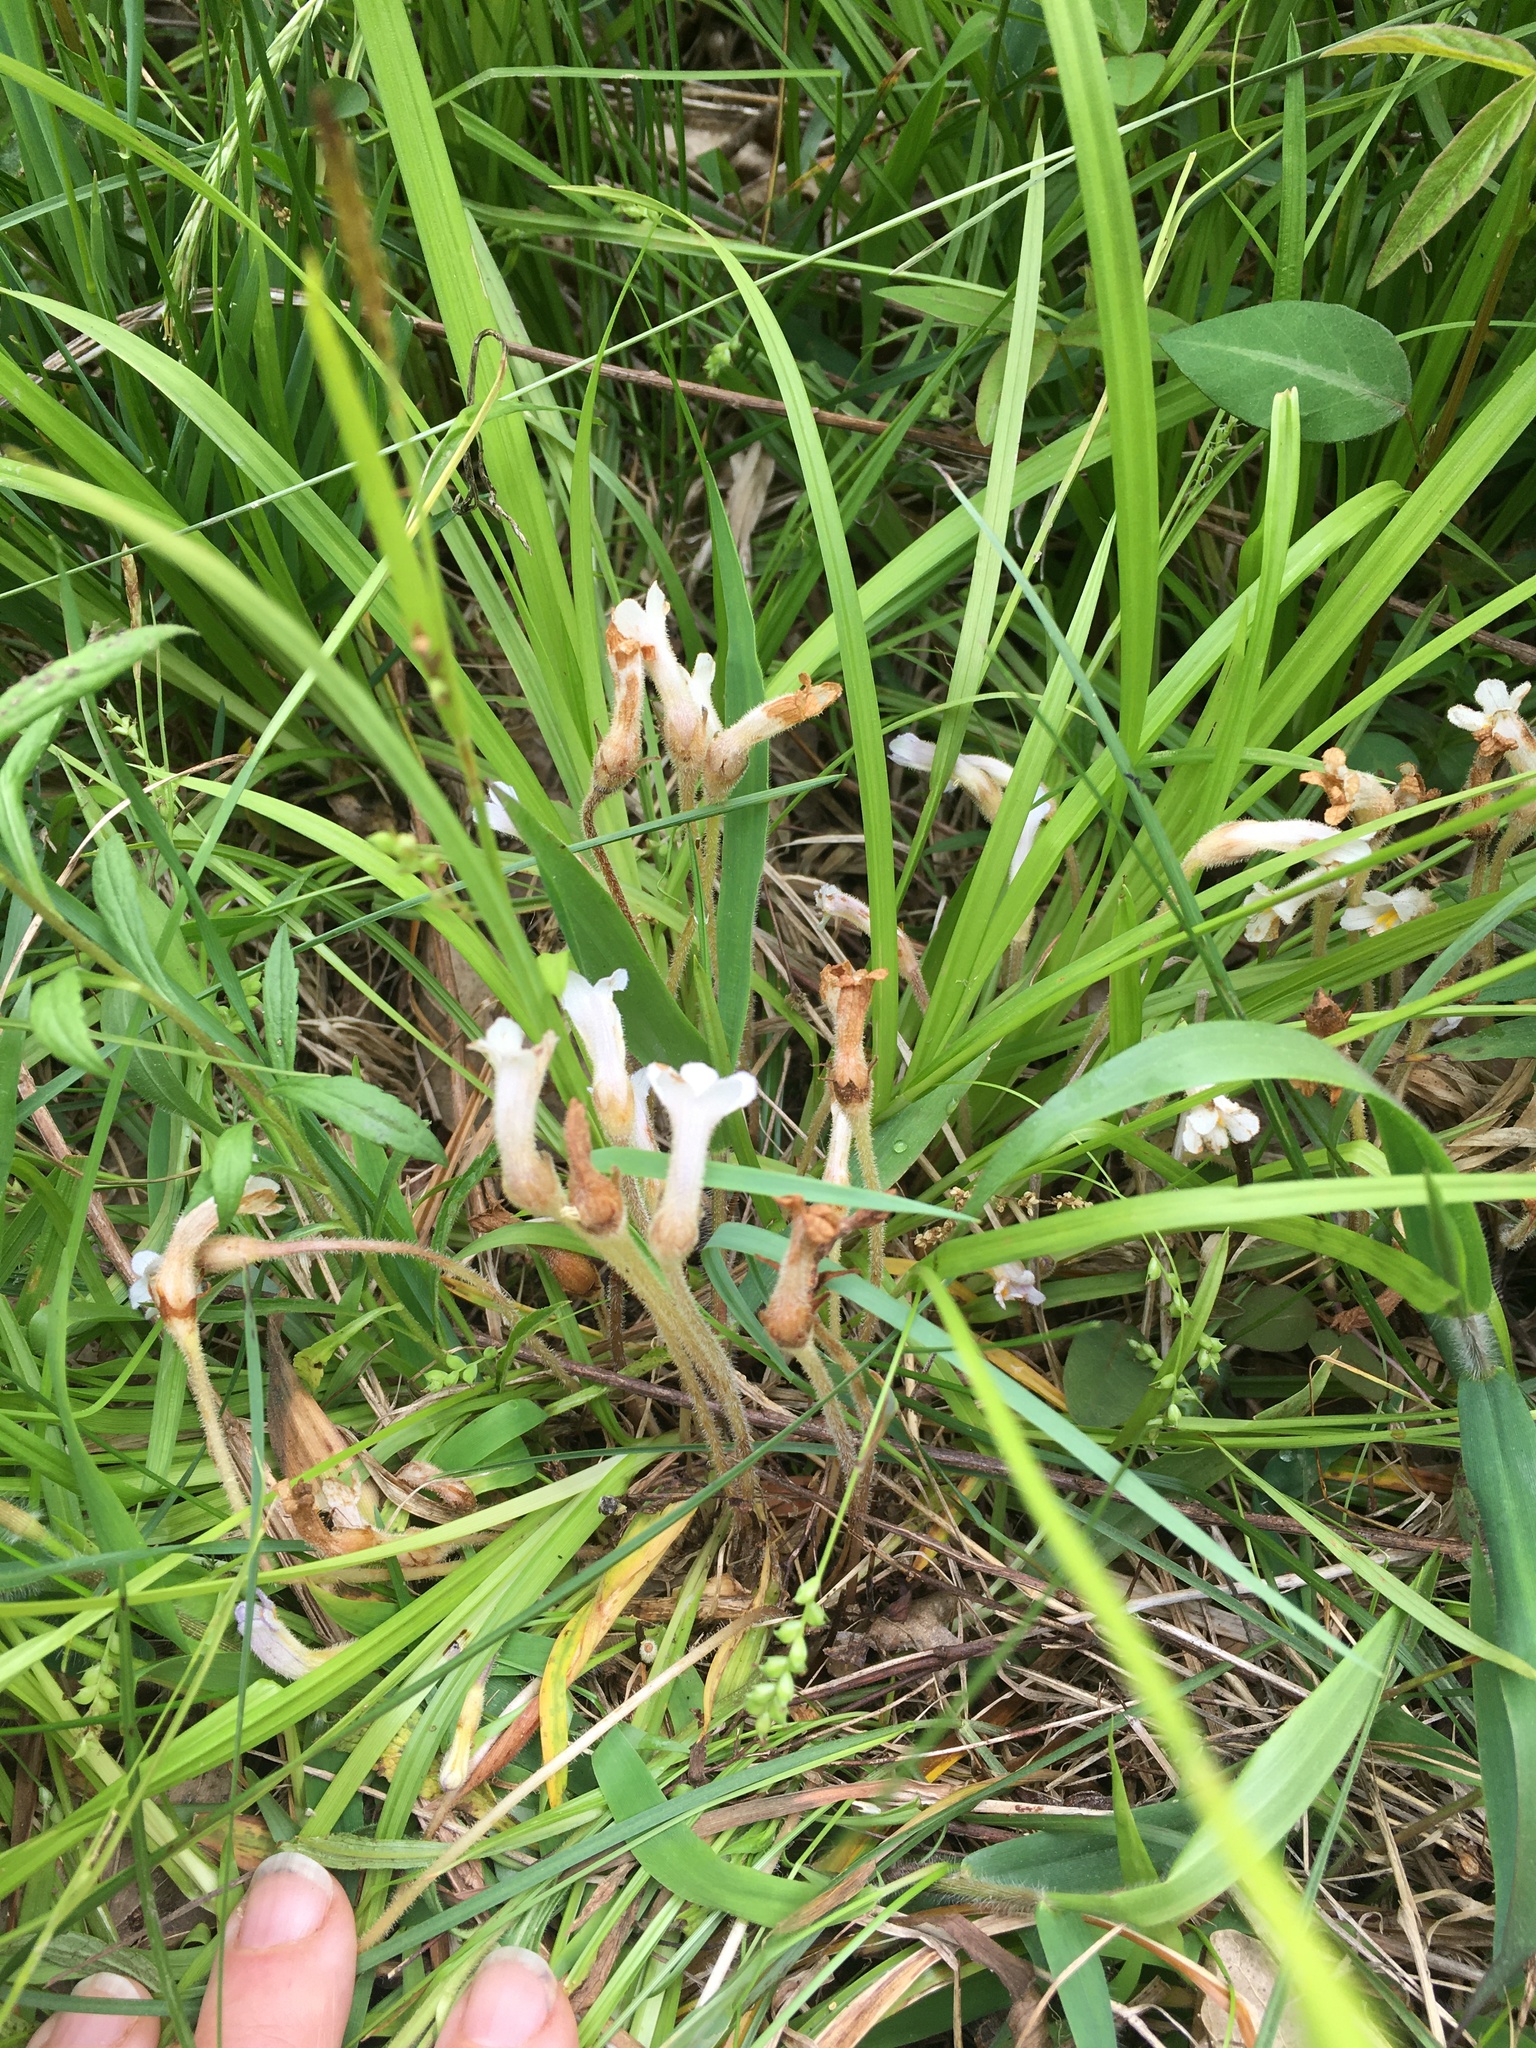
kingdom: Plantae
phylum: Tracheophyta
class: Magnoliopsida
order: Lamiales
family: Orobanchaceae
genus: Aphyllon
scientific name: Aphyllon uniflorum
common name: One-flowered broomrape
